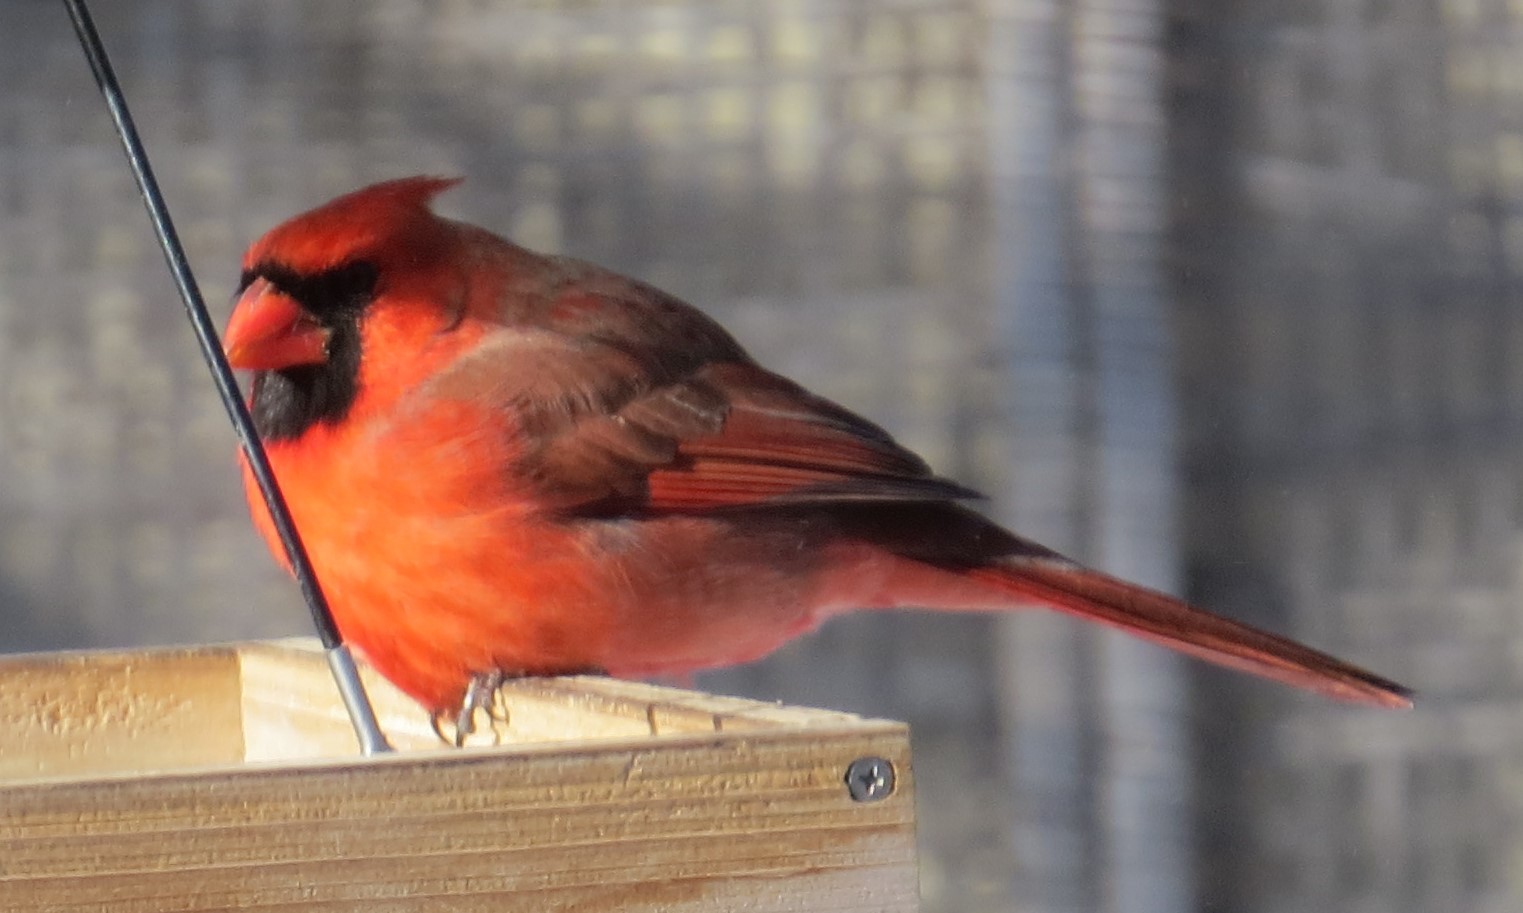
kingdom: Animalia
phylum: Chordata
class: Aves
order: Passeriformes
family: Cardinalidae
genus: Cardinalis
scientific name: Cardinalis cardinalis
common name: Northern cardinal
